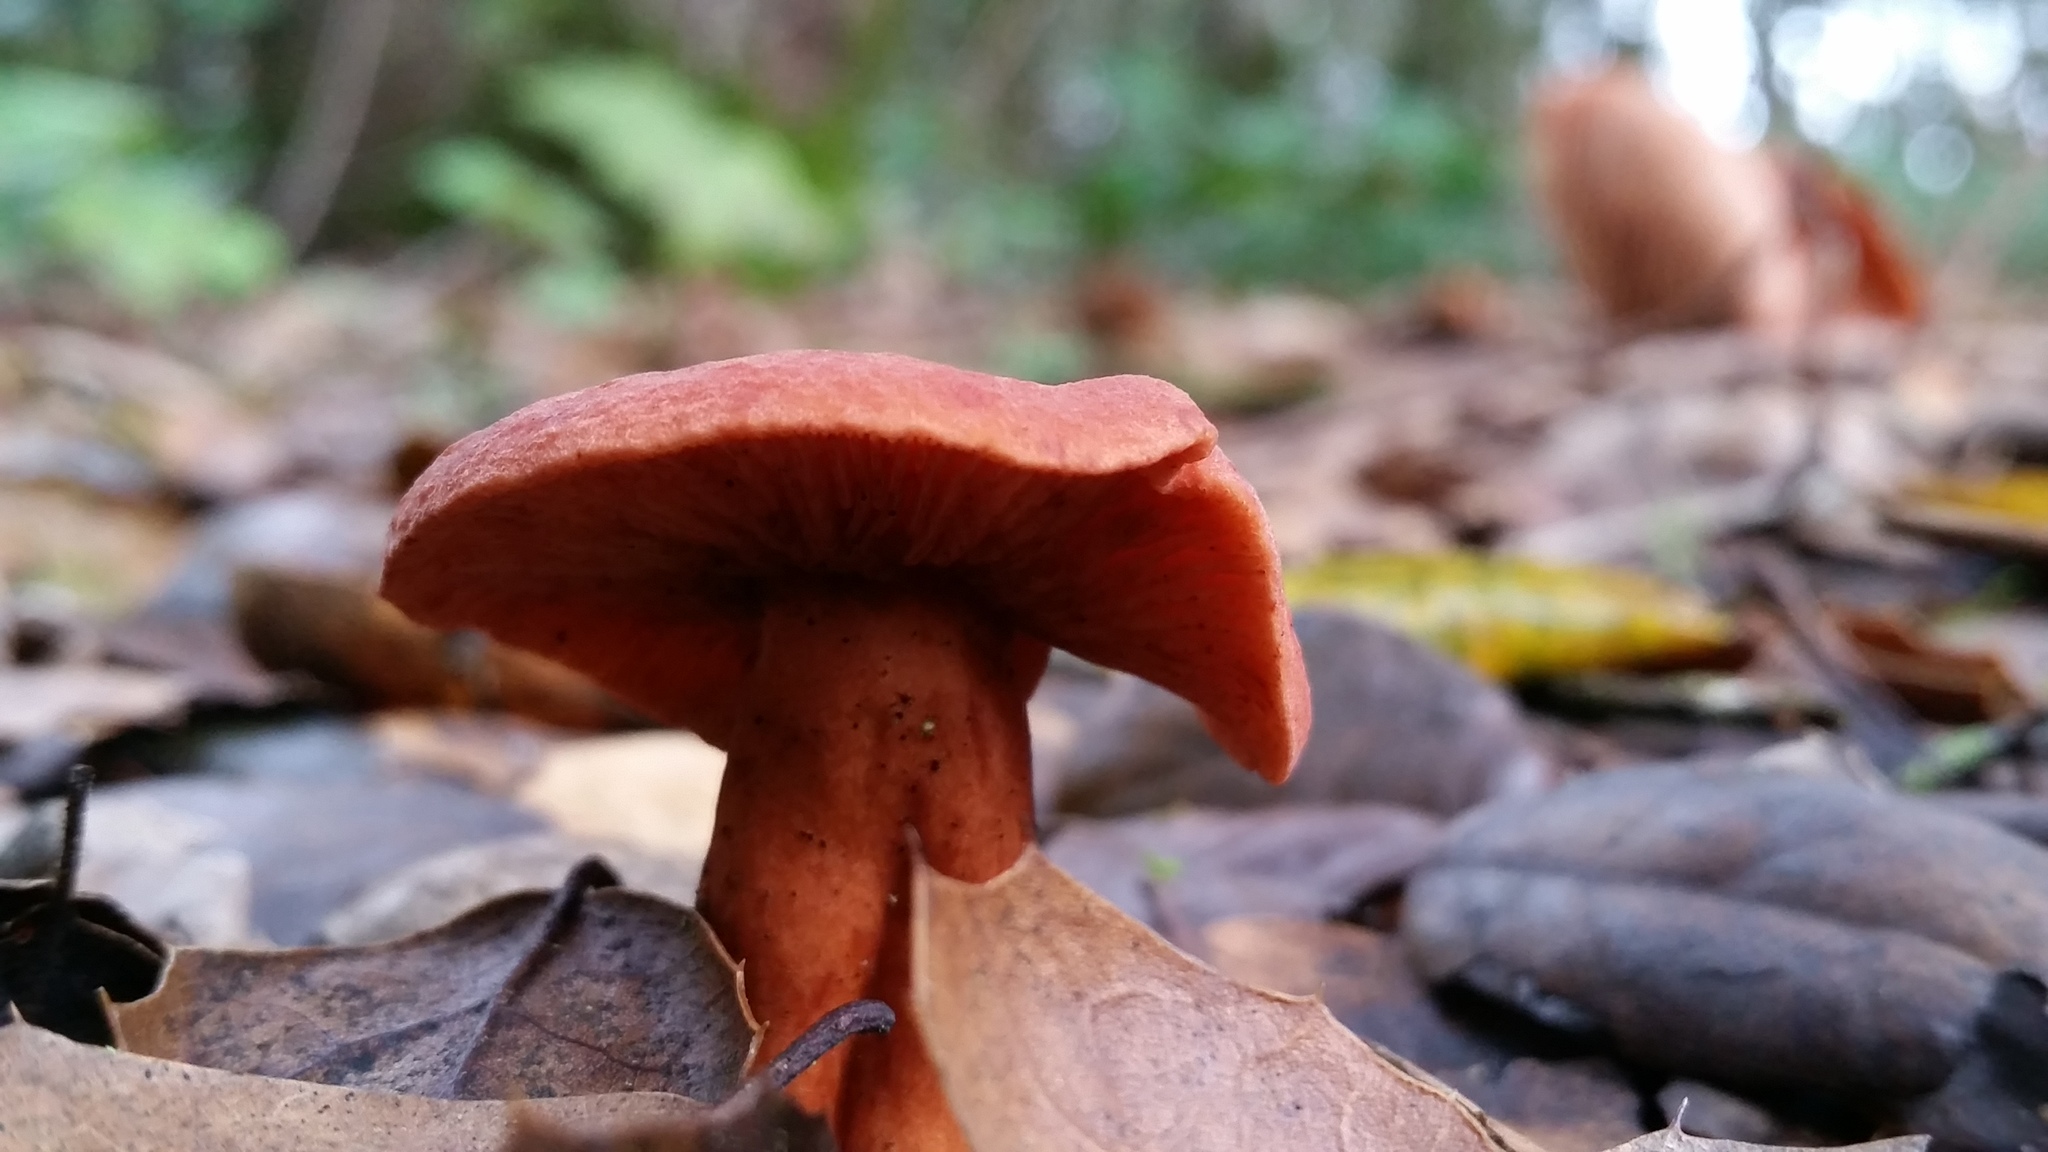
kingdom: Fungi
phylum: Basidiomycota
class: Agaricomycetes
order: Russulales
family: Russulaceae
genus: Lactarius
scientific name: Lactarius rufulus
